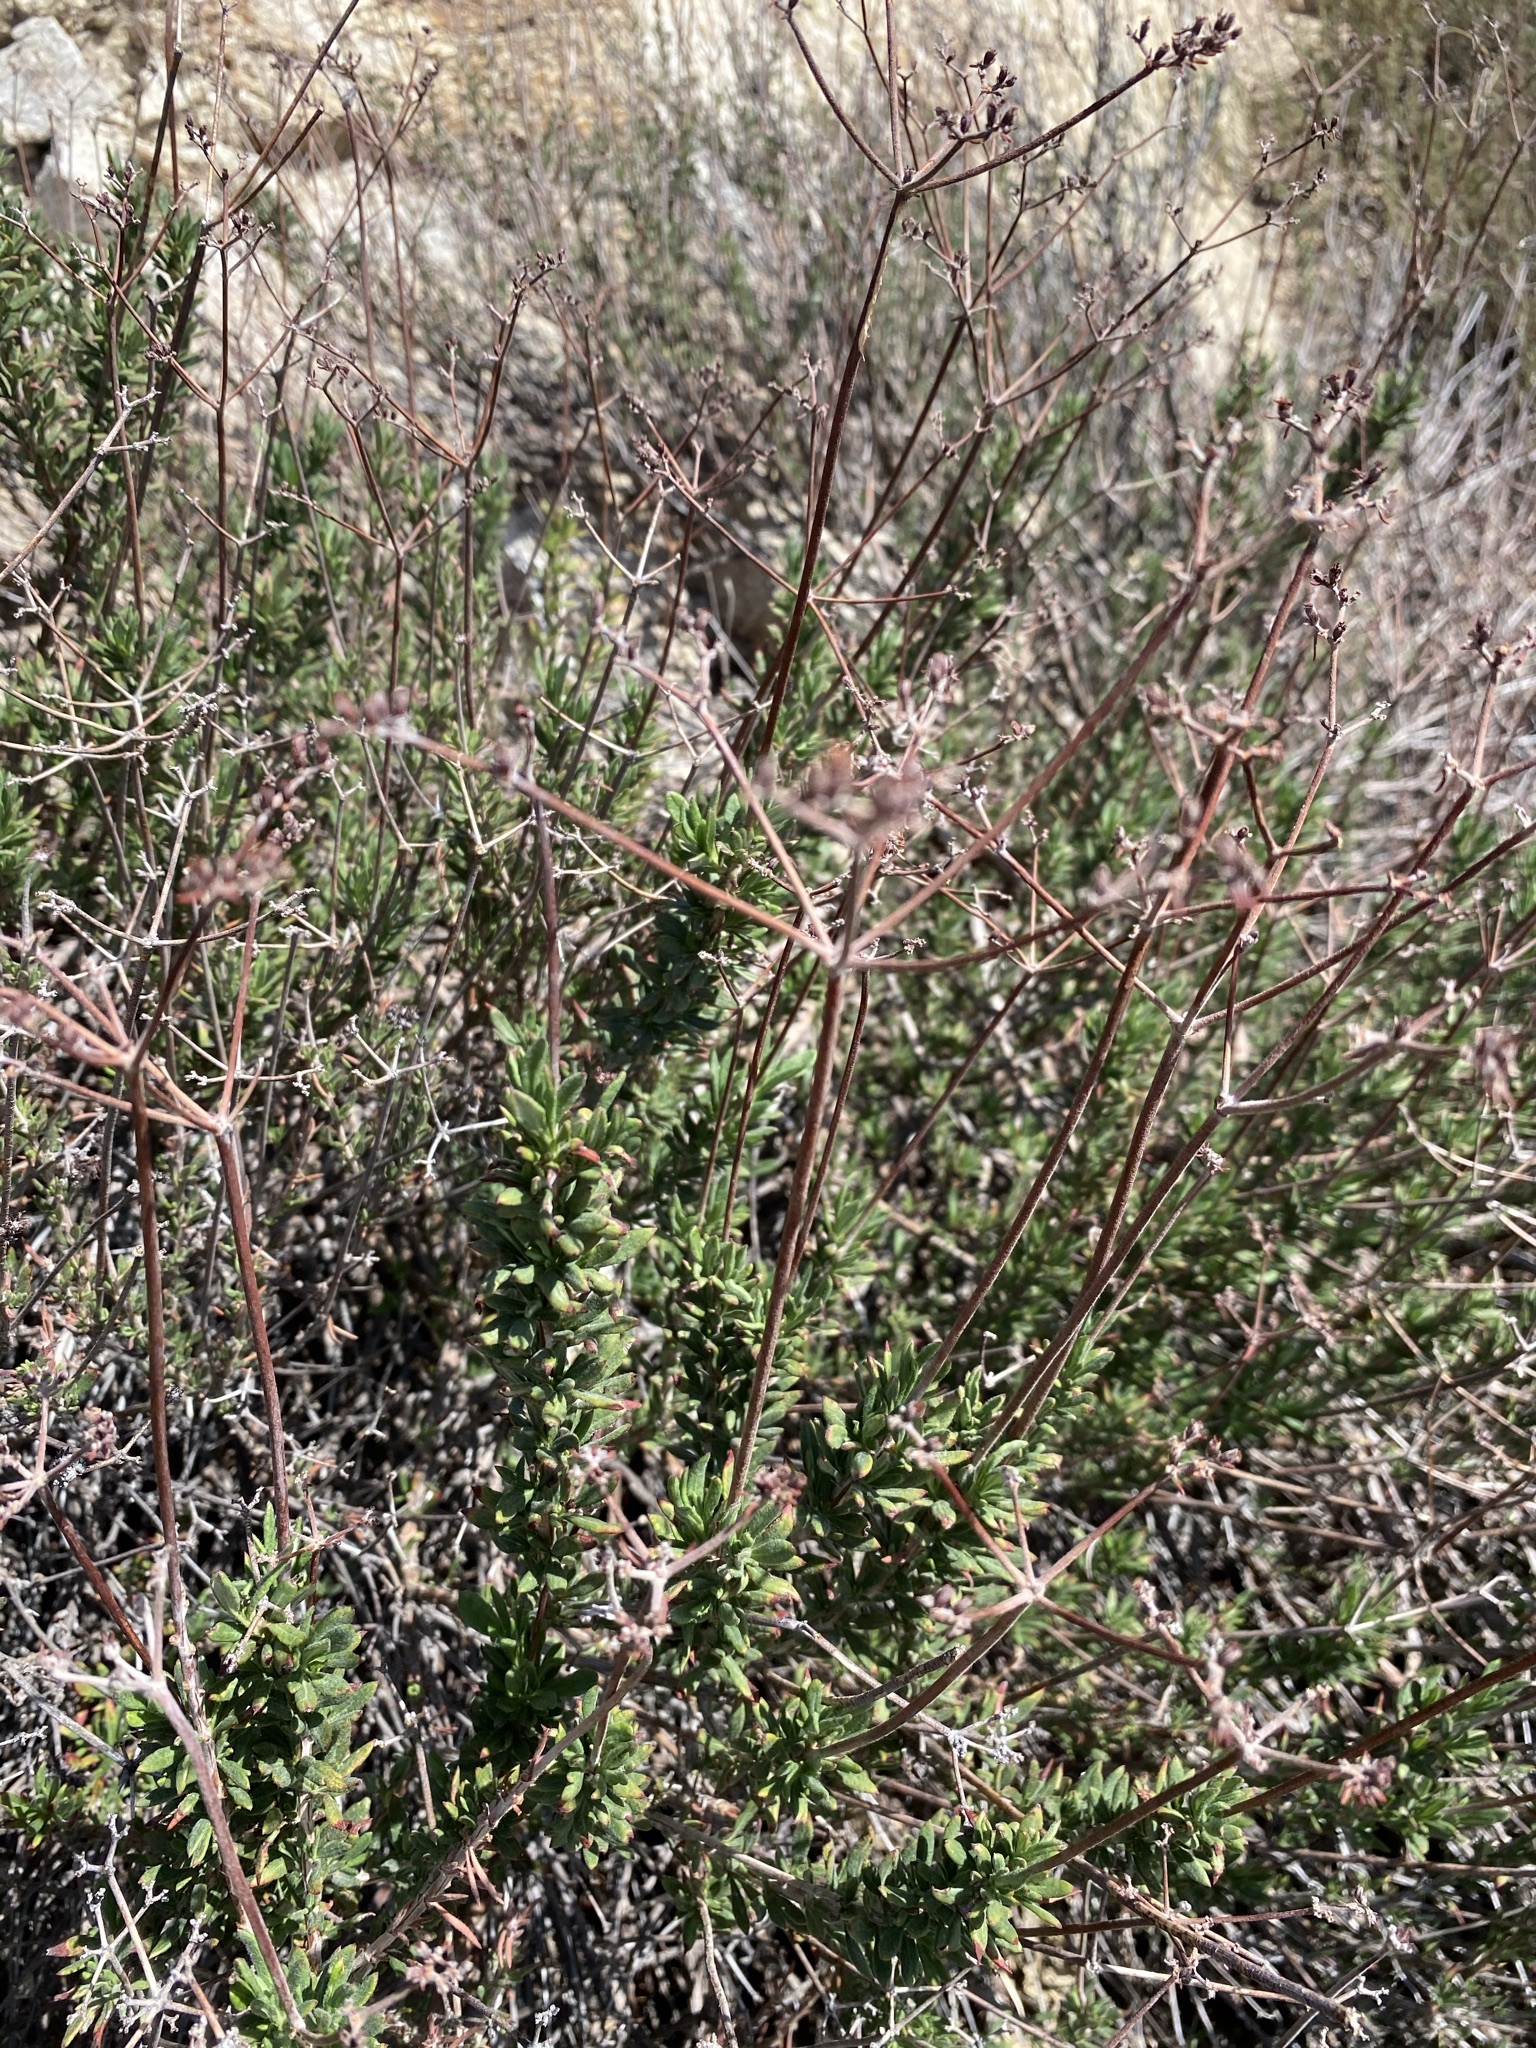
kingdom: Plantae
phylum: Tracheophyta
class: Magnoliopsida
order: Caryophyllales
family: Polygonaceae
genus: Eriogonum
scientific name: Eriogonum fasciculatum
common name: California wild buckwheat
